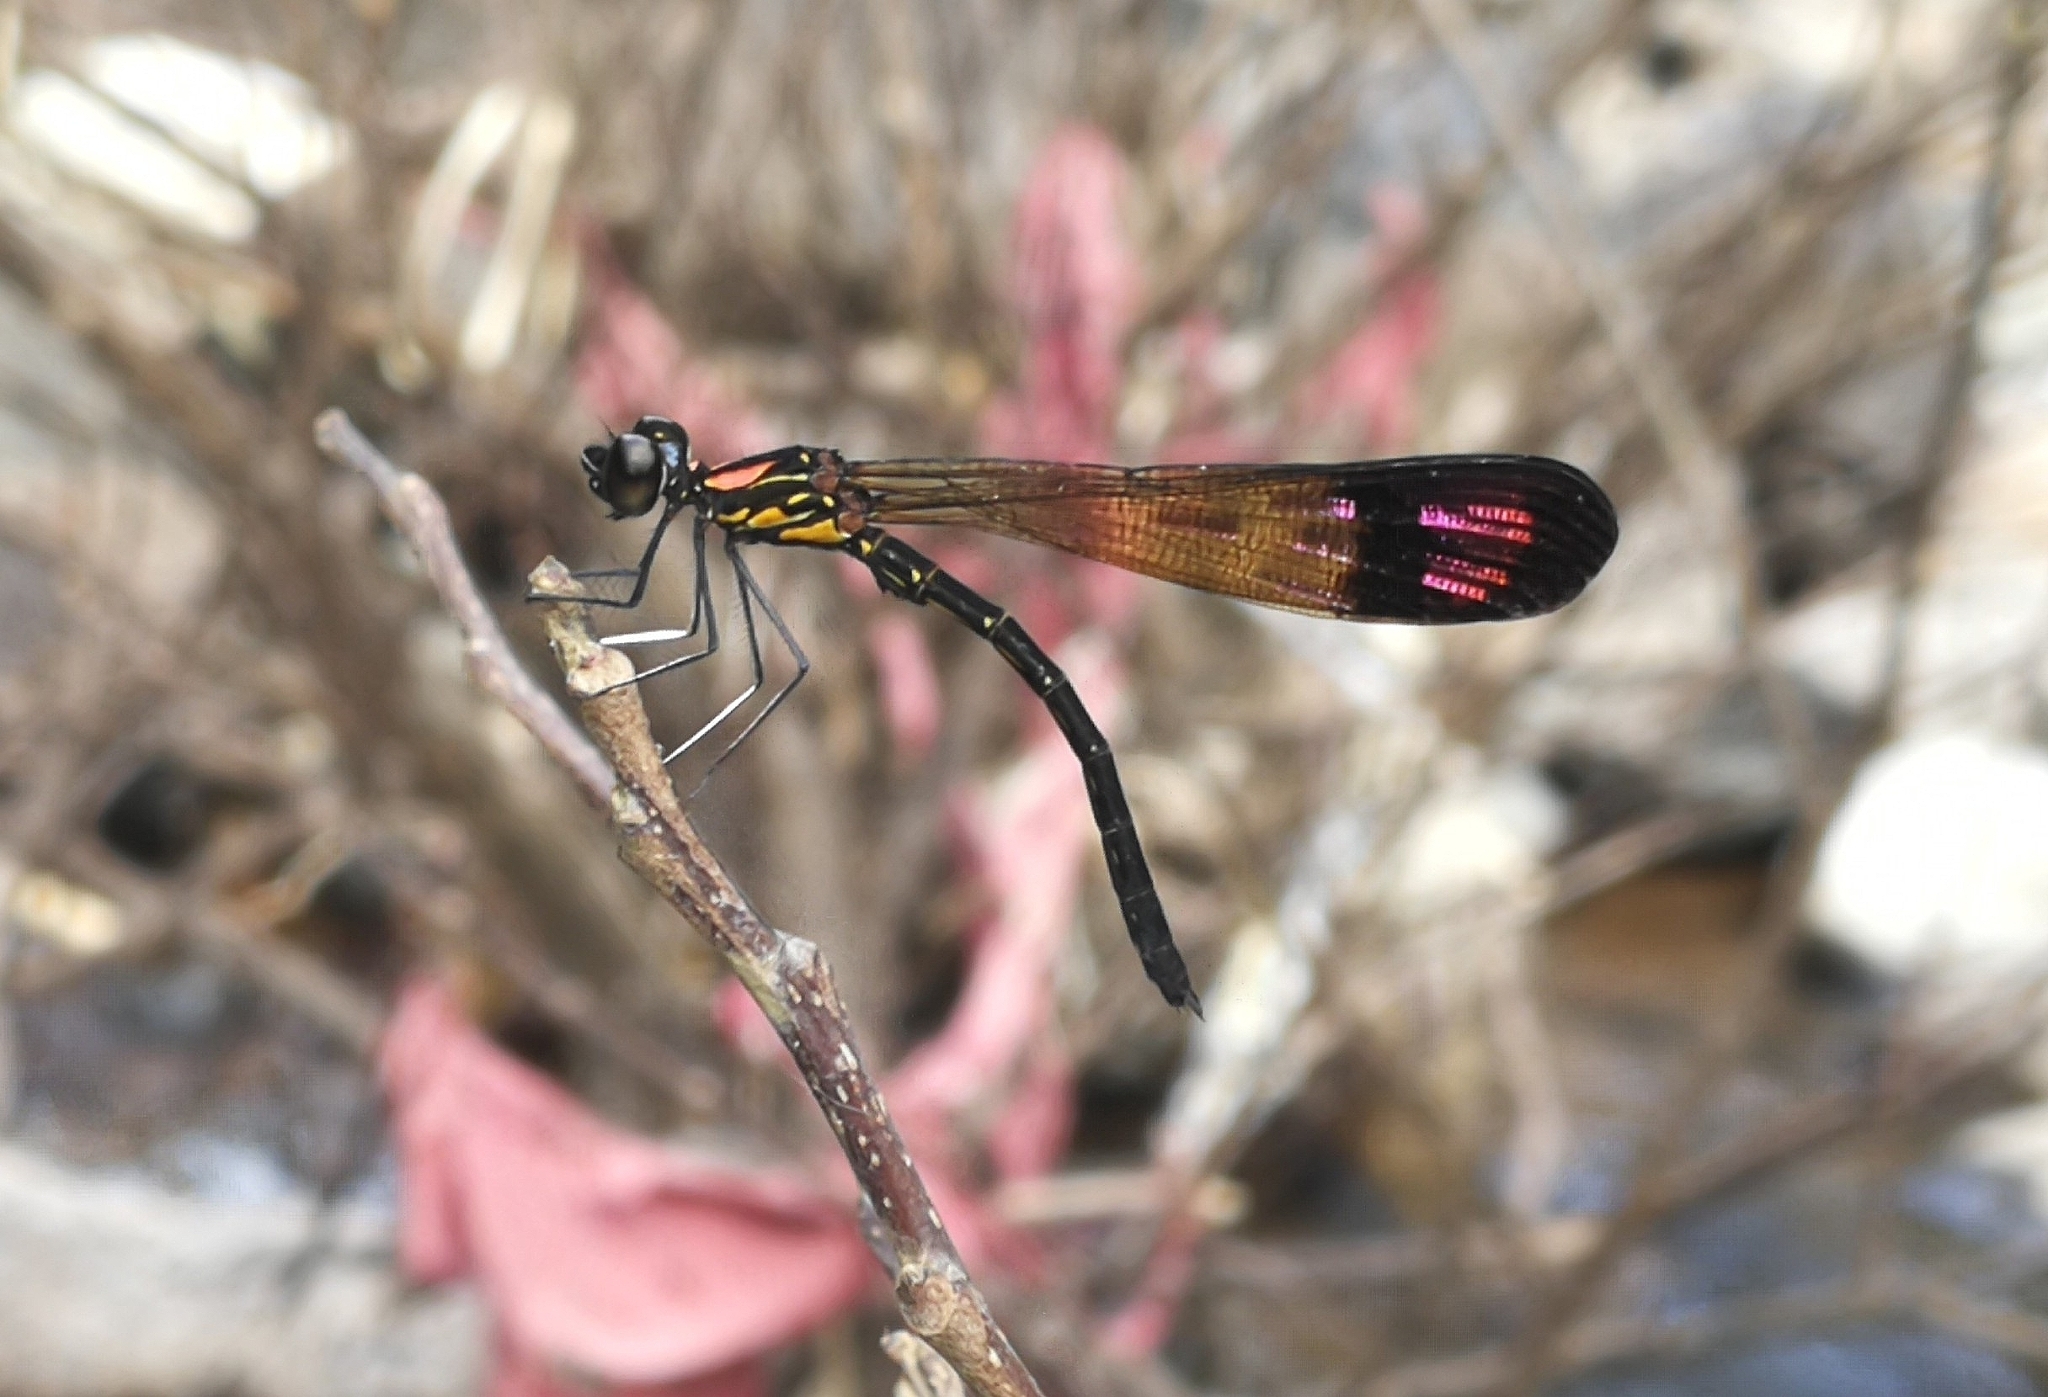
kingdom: Animalia
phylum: Arthropoda
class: Insecta
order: Odonata
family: Chlorocyphidae
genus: Heliocypha
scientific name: Heliocypha bisignata
